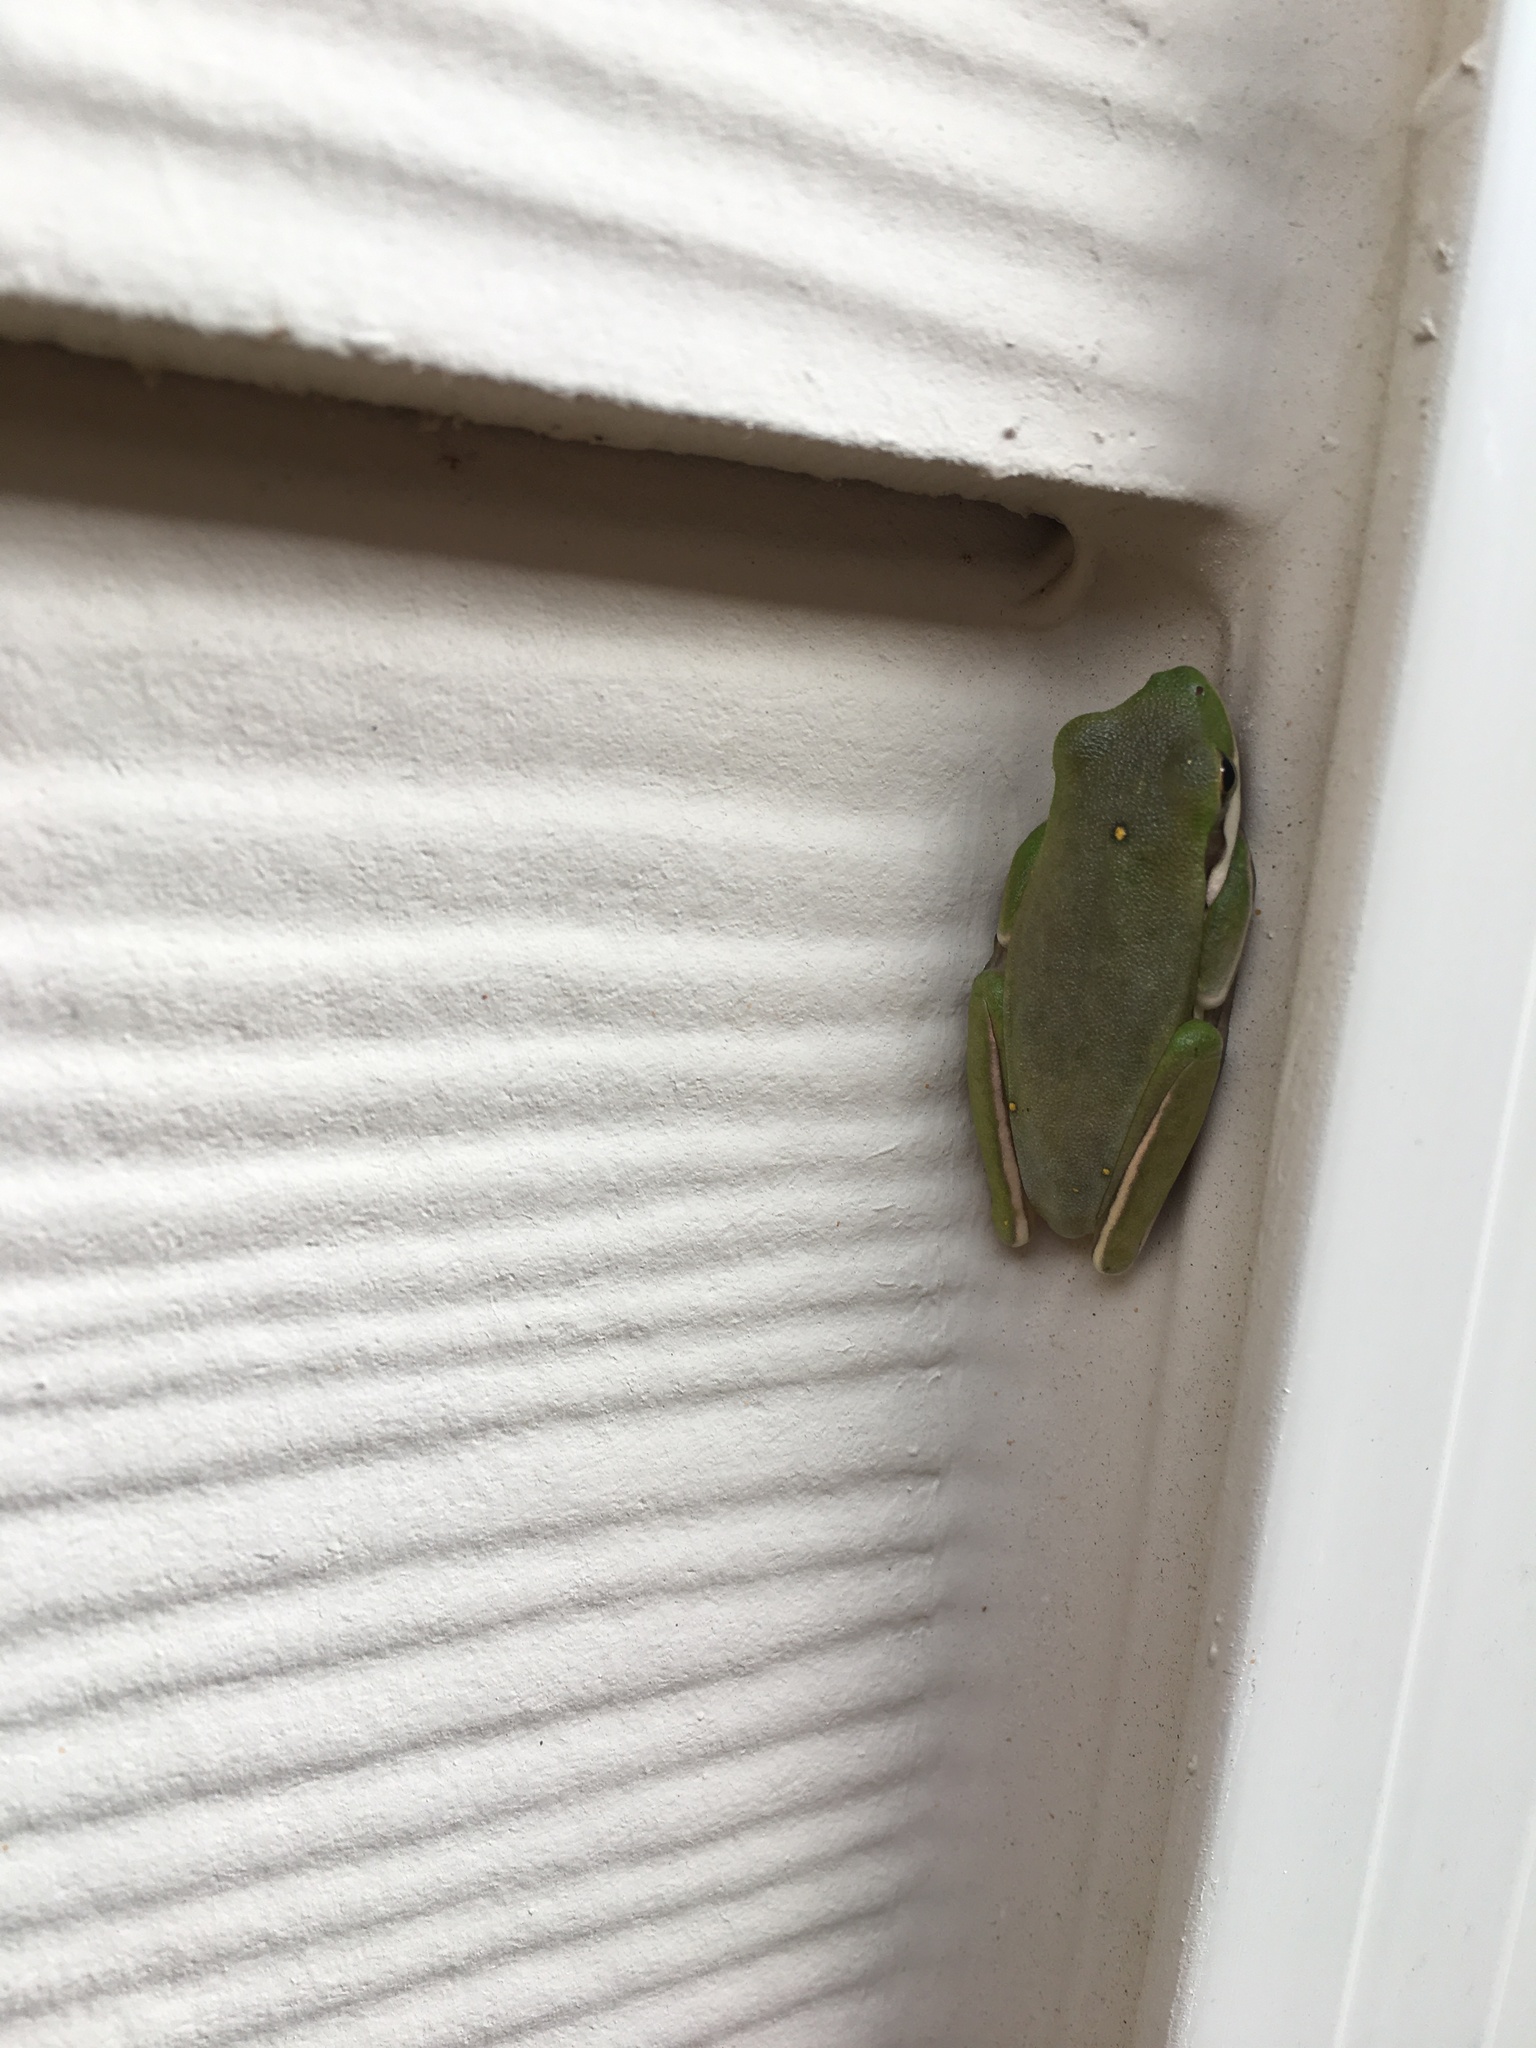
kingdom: Animalia
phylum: Chordata
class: Amphibia
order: Anura
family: Hylidae
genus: Dryophytes
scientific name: Dryophytes cinereus
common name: Green treefrog
